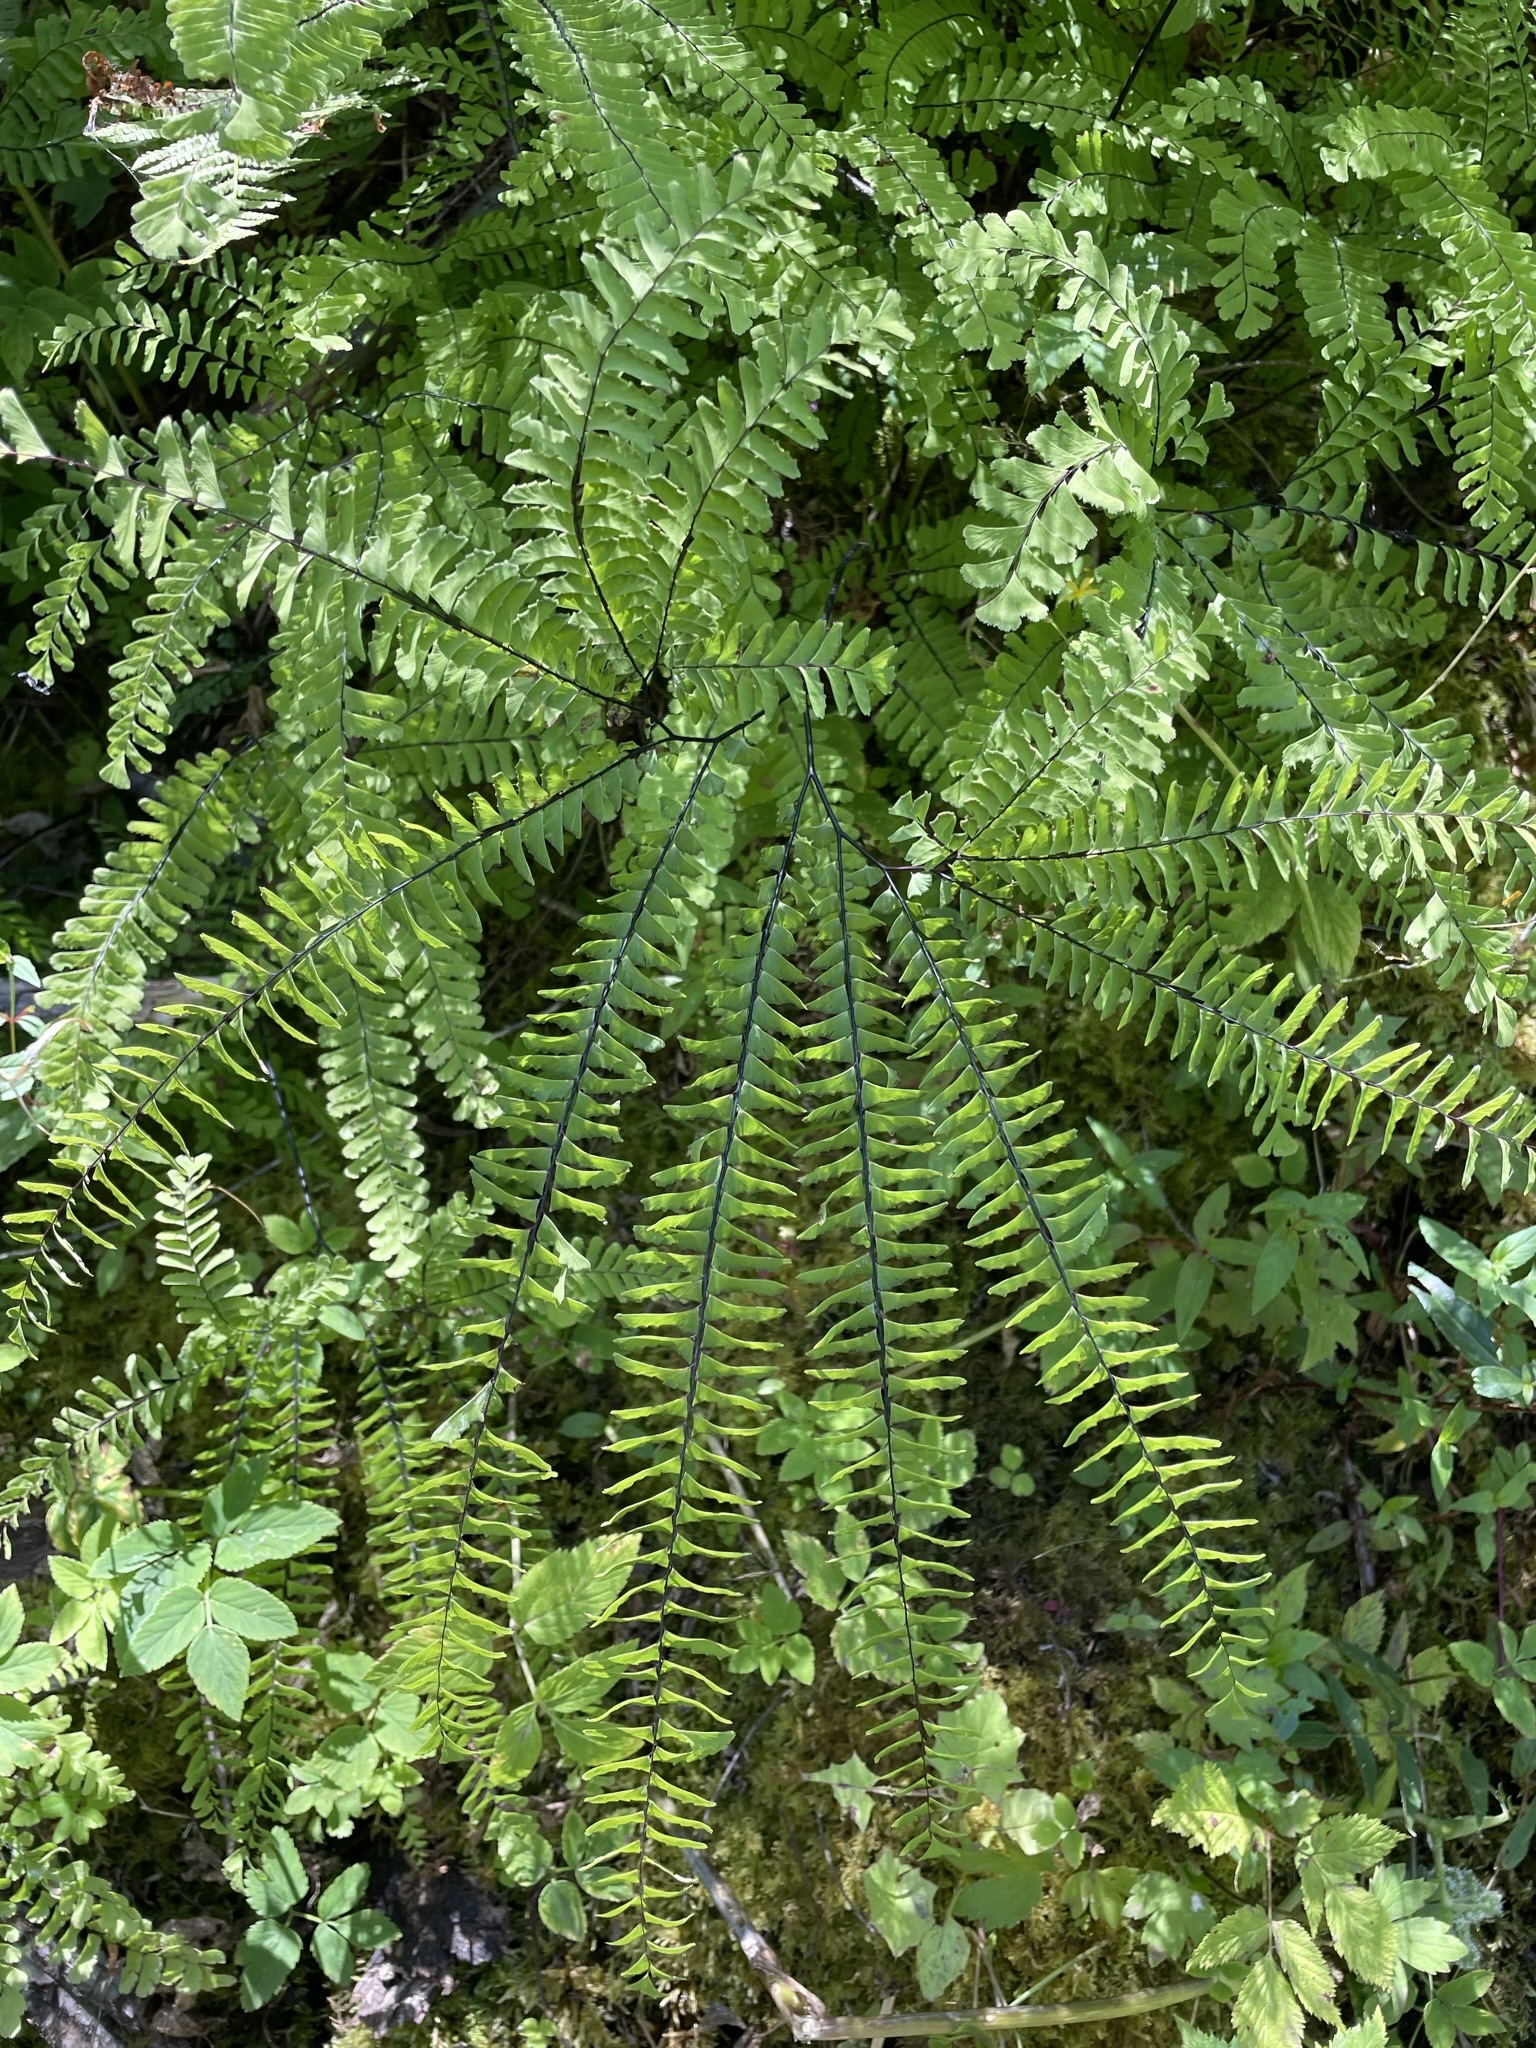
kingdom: Plantae
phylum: Tracheophyta
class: Polypodiopsida
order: Polypodiales
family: Pteridaceae
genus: Adiantum
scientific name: Adiantum aleuticum
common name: Aleutian maidenhair fern
